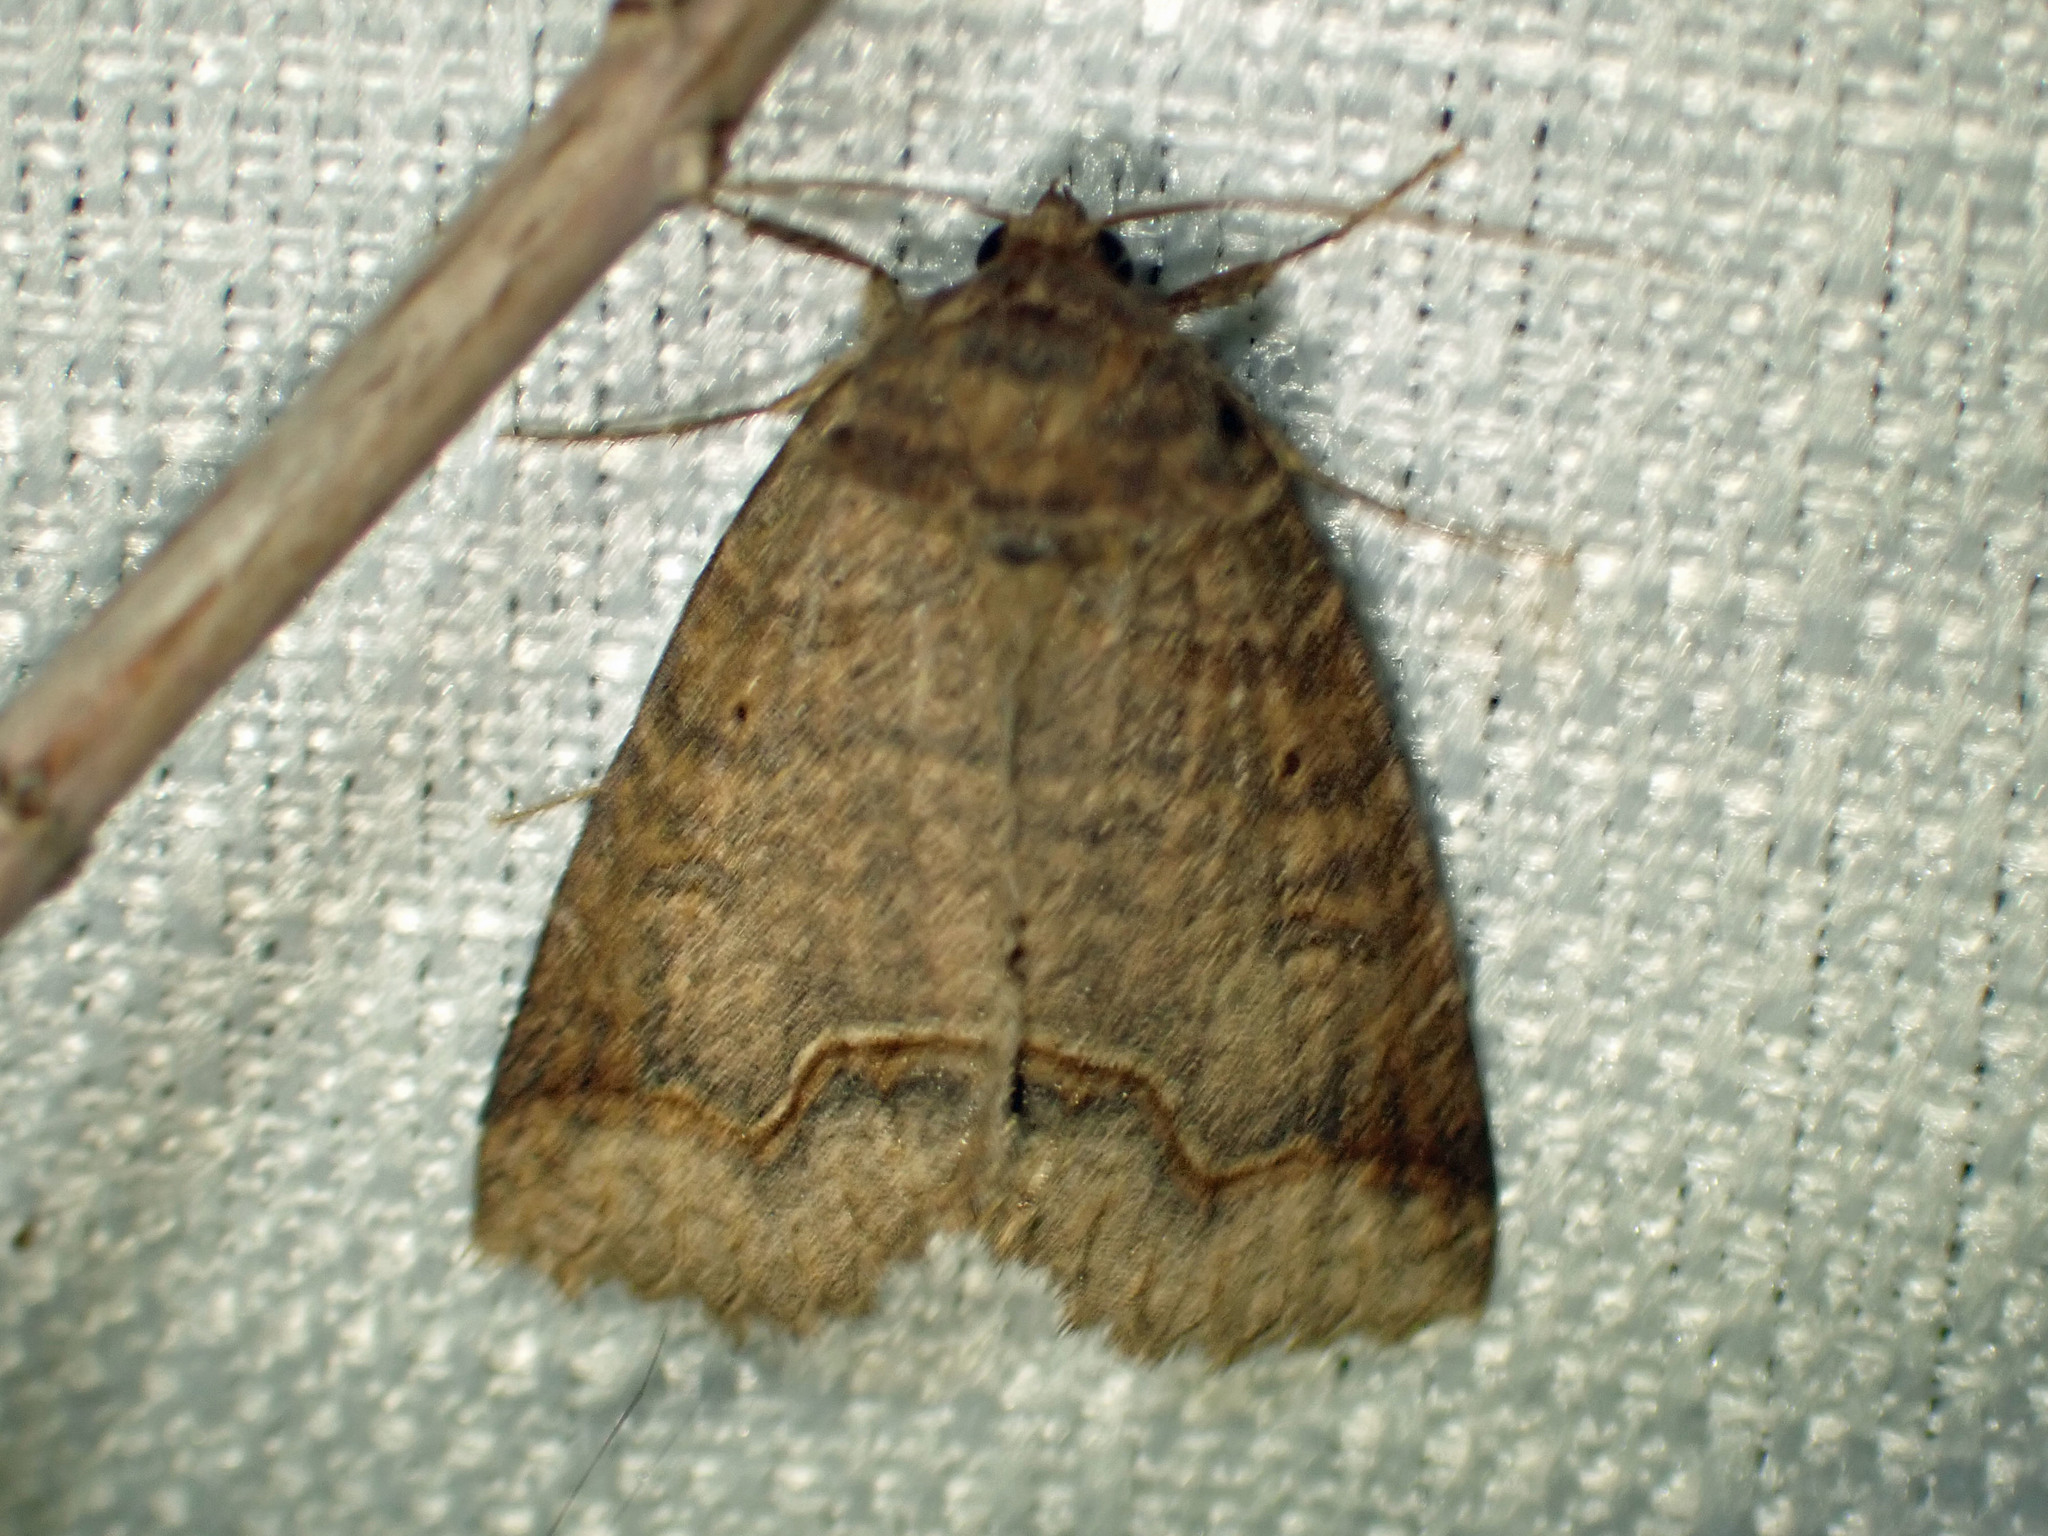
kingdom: Animalia
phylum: Arthropoda
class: Insecta
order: Lepidoptera
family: Erebidae
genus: Zale
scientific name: Zale unilineata
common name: One-lined zale moth
